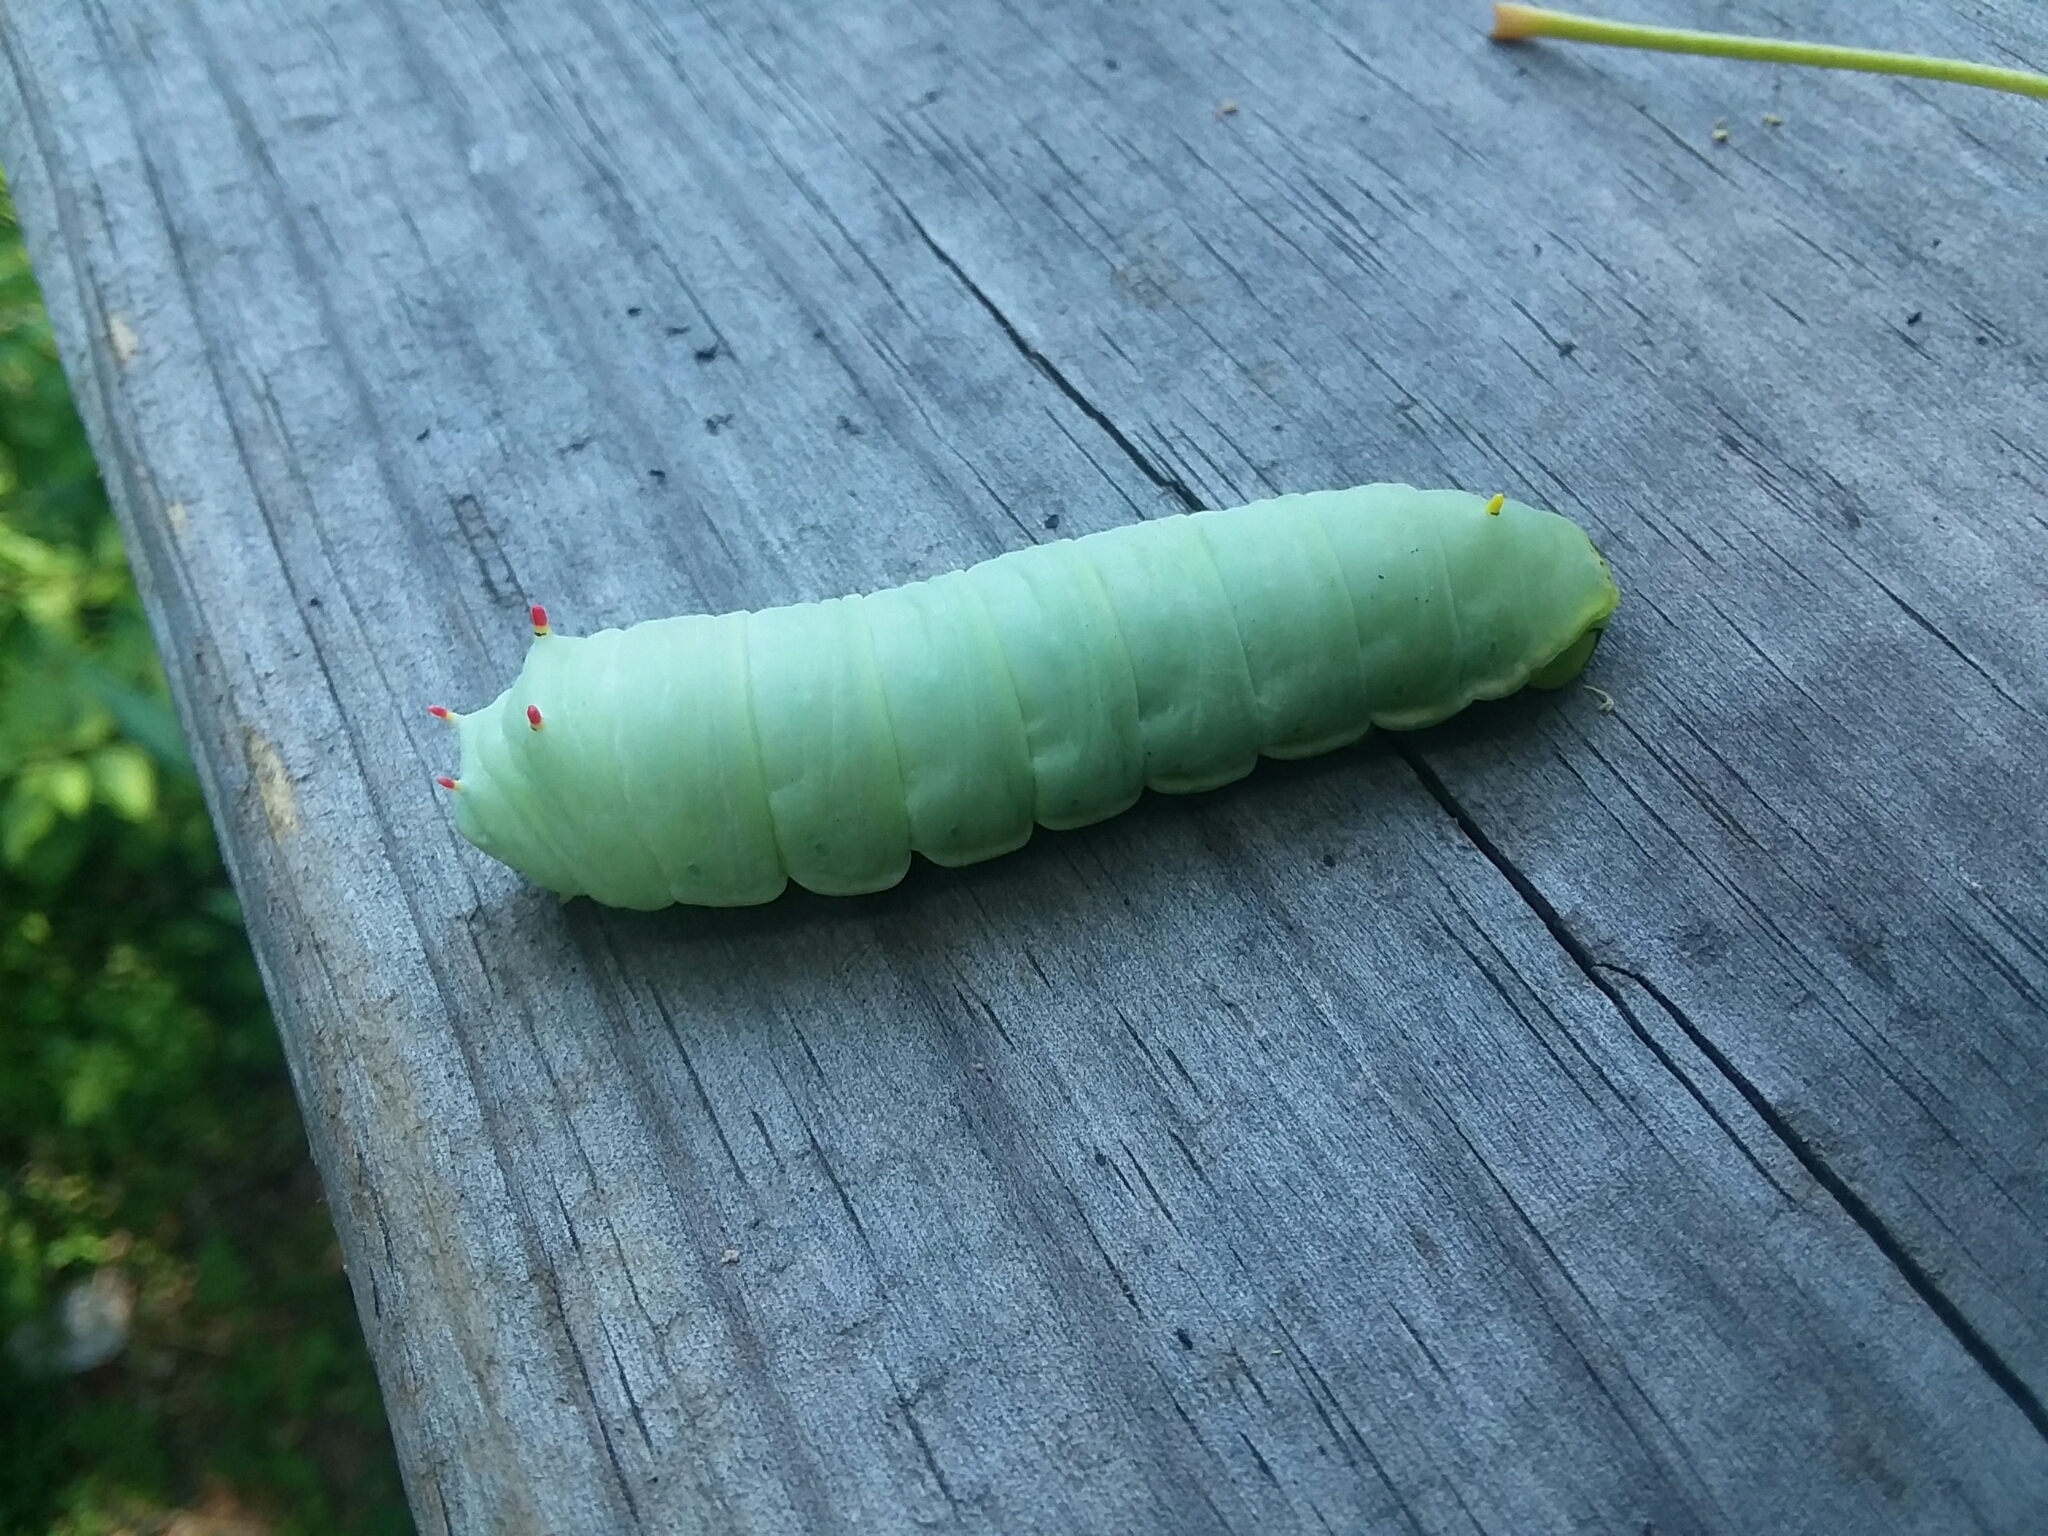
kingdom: Animalia
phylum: Arthropoda
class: Insecta
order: Lepidoptera
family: Saturniidae
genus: Callosamia
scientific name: Callosamia angulifera
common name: Tulip tree silkmoth
